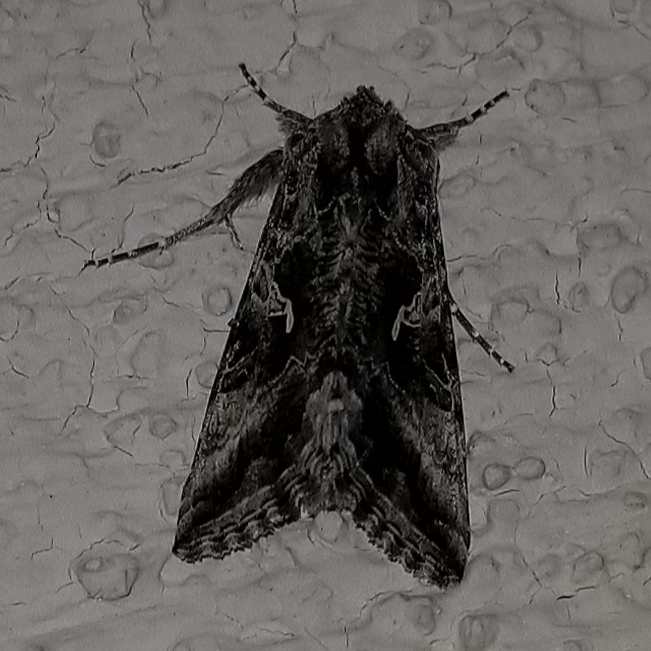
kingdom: Animalia
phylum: Arthropoda
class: Insecta
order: Lepidoptera
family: Noctuidae
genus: Autographa
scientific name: Autographa californica
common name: Alfalfa looper
